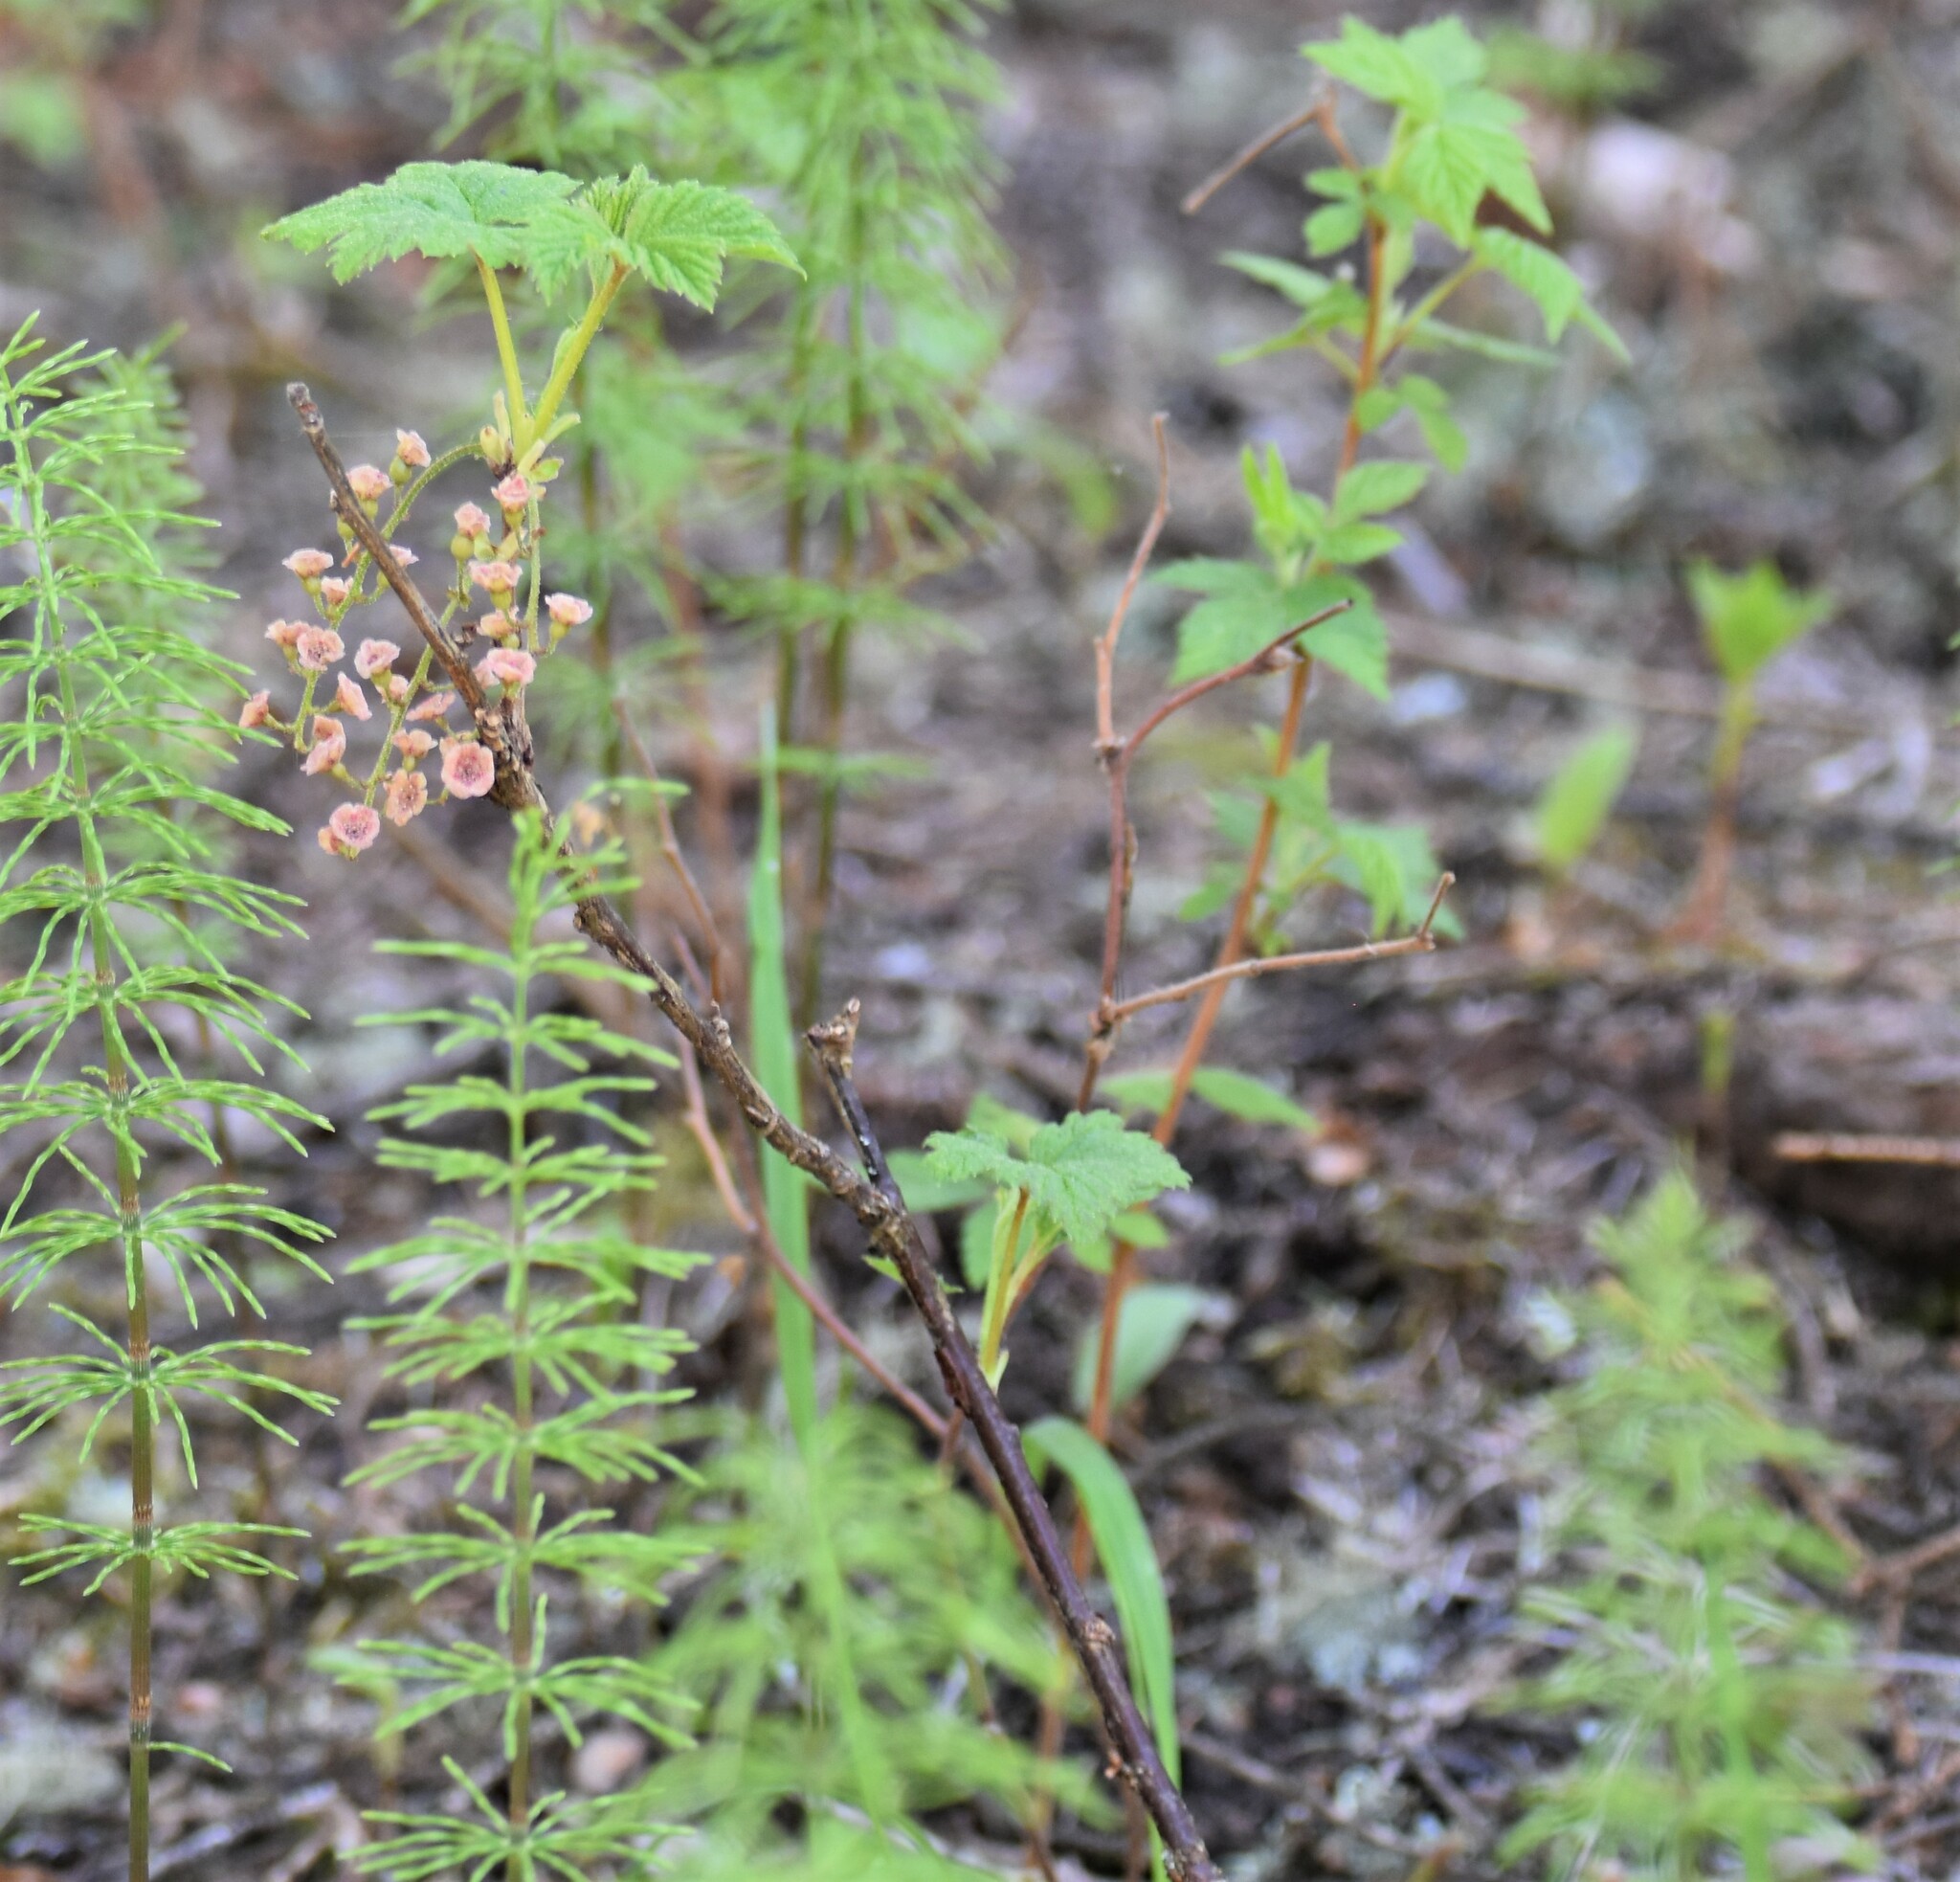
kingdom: Plantae
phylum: Tracheophyta
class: Magnoliopsida
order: Saxifragales
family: Grossulariaceae
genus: Ribes
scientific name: Ribes triste
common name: Swamp red currant
